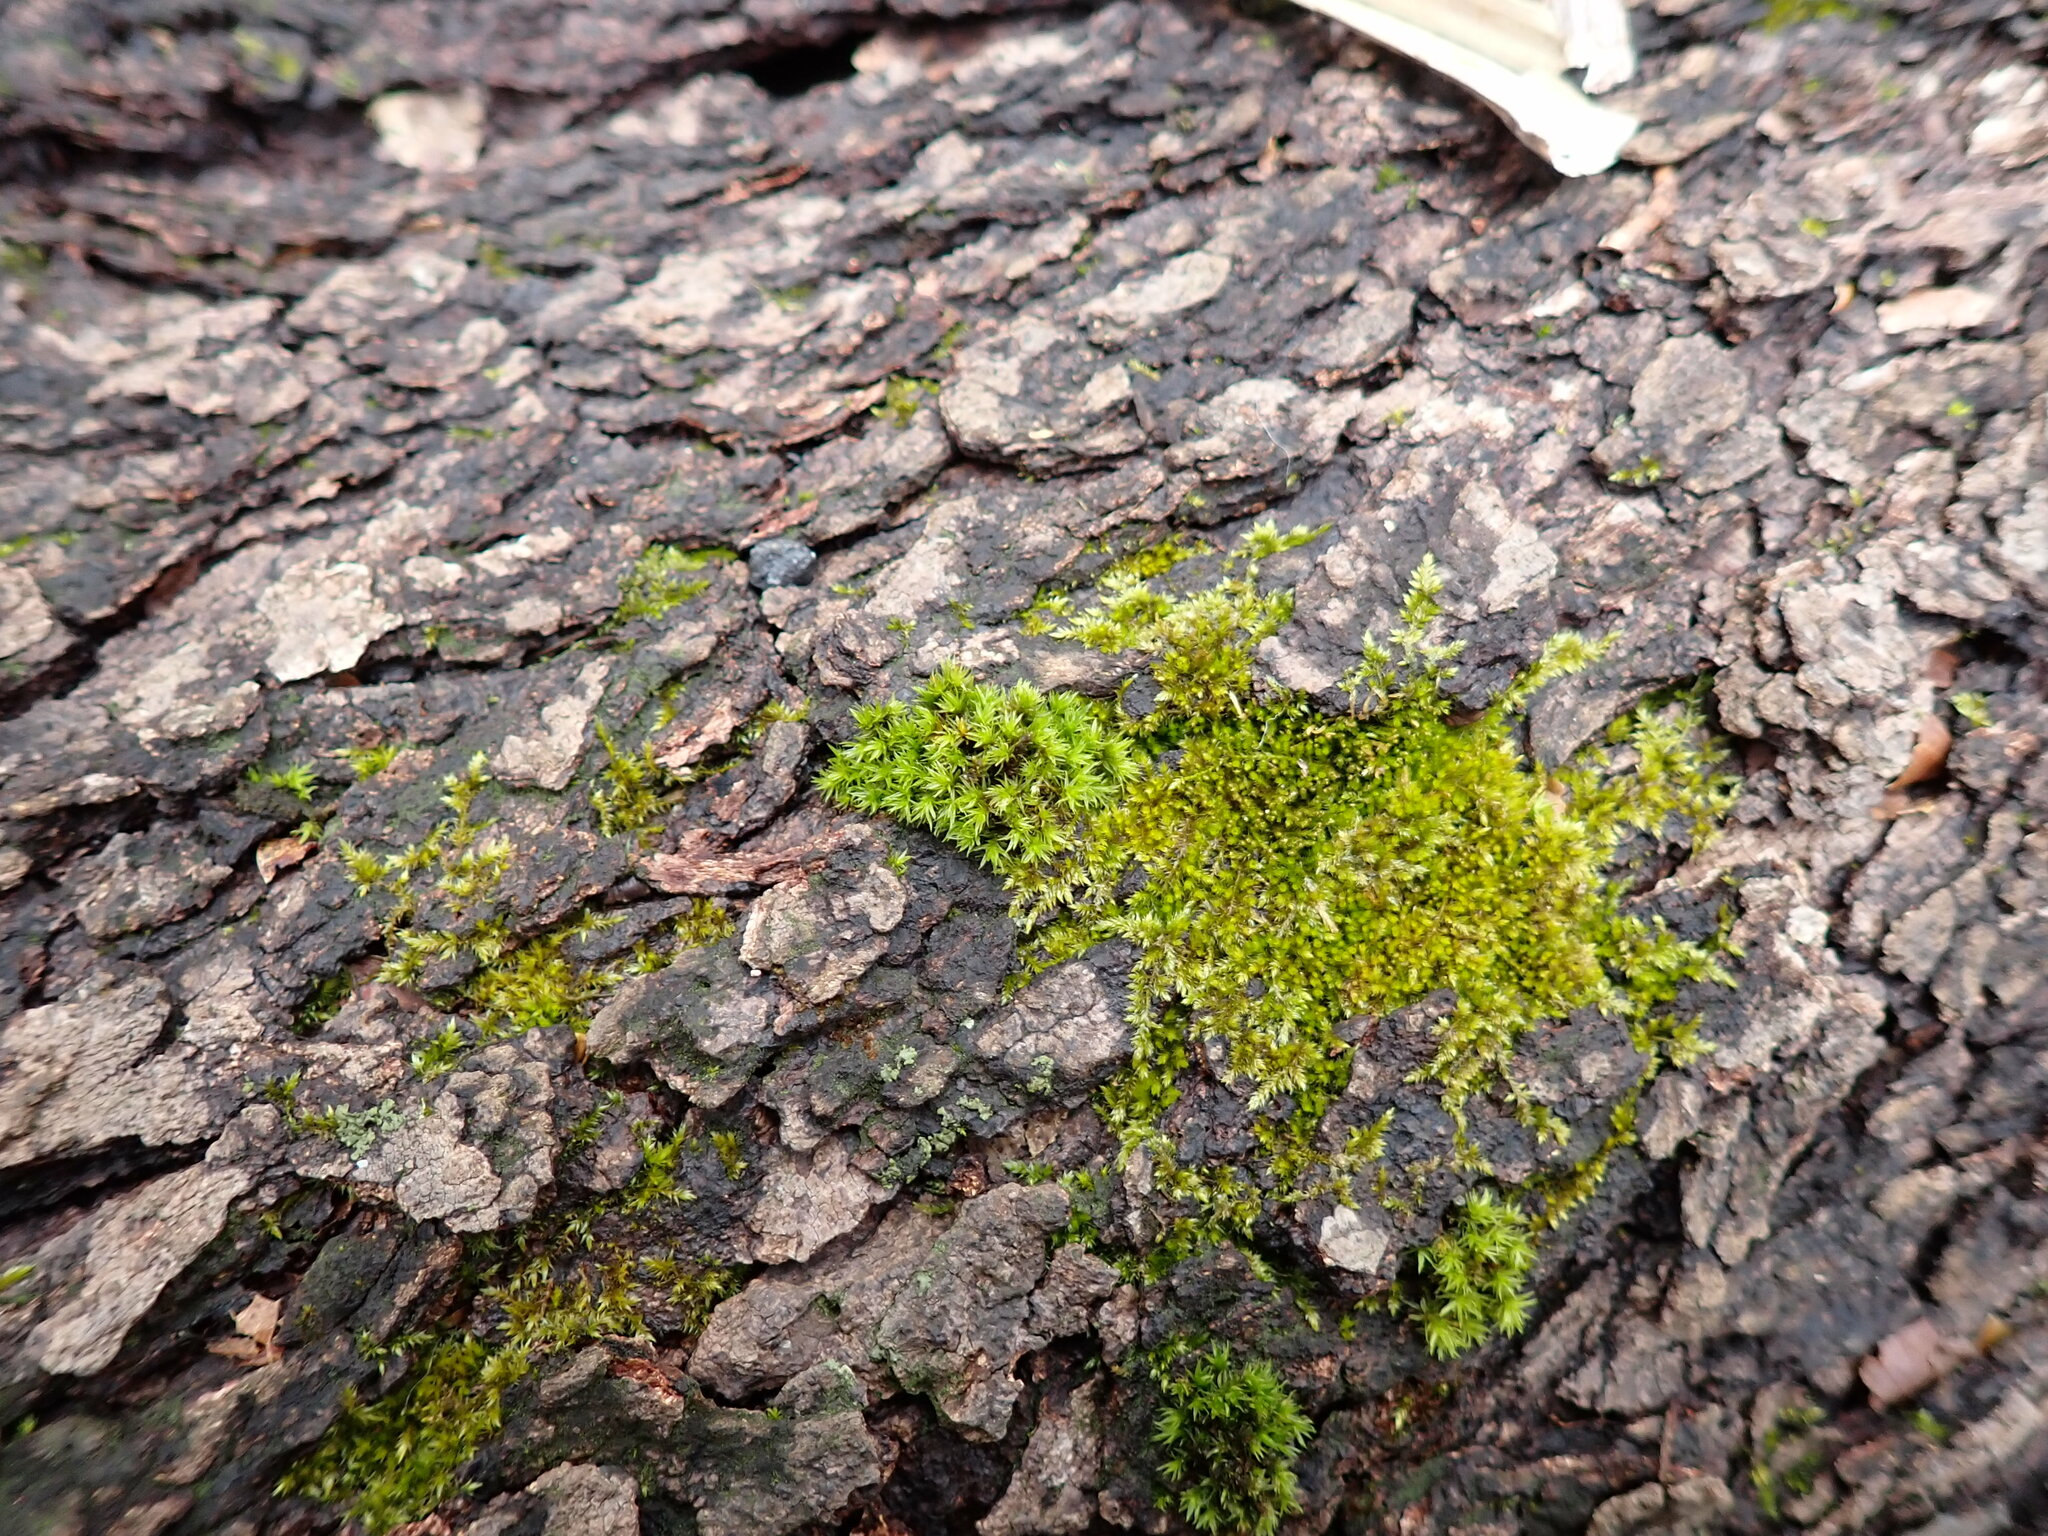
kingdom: Plantae
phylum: Bryophyta
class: Bryopsida
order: Orthotrichales
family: Orthotrichaceae
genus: Orthotrichum
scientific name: Orthotrichum stellatum
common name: Starlike bristle moss
